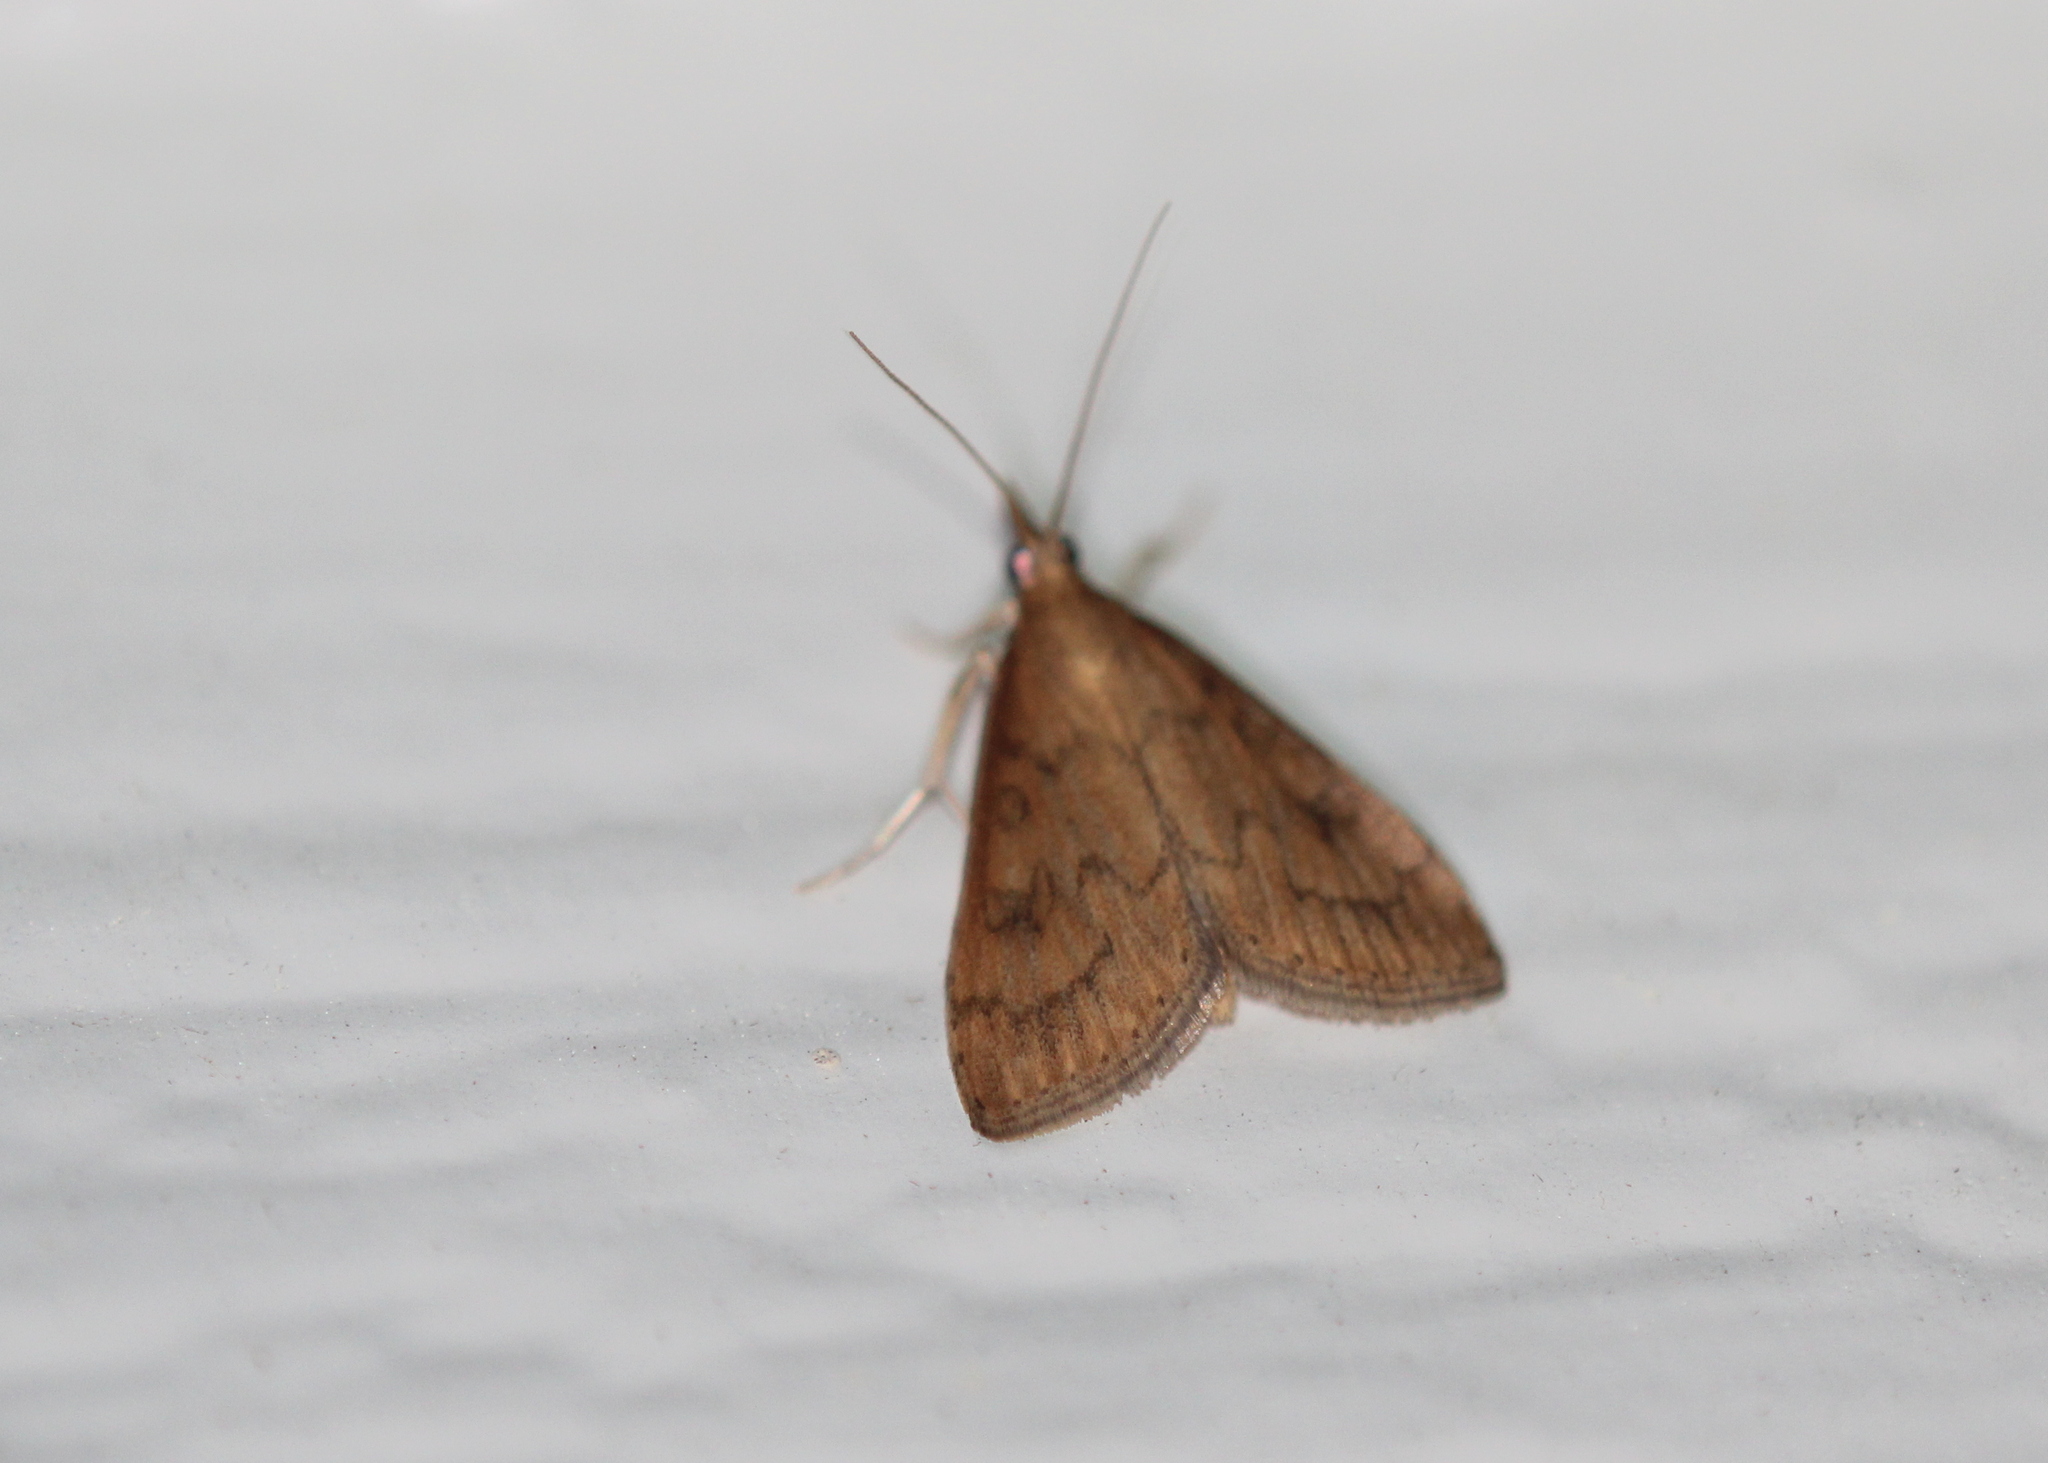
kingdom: Animalia
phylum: Arthropoda
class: Insecta
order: Lepidoptera
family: Crambidae
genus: Udea
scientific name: Udea rubigalis
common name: Celery leaftier moth
